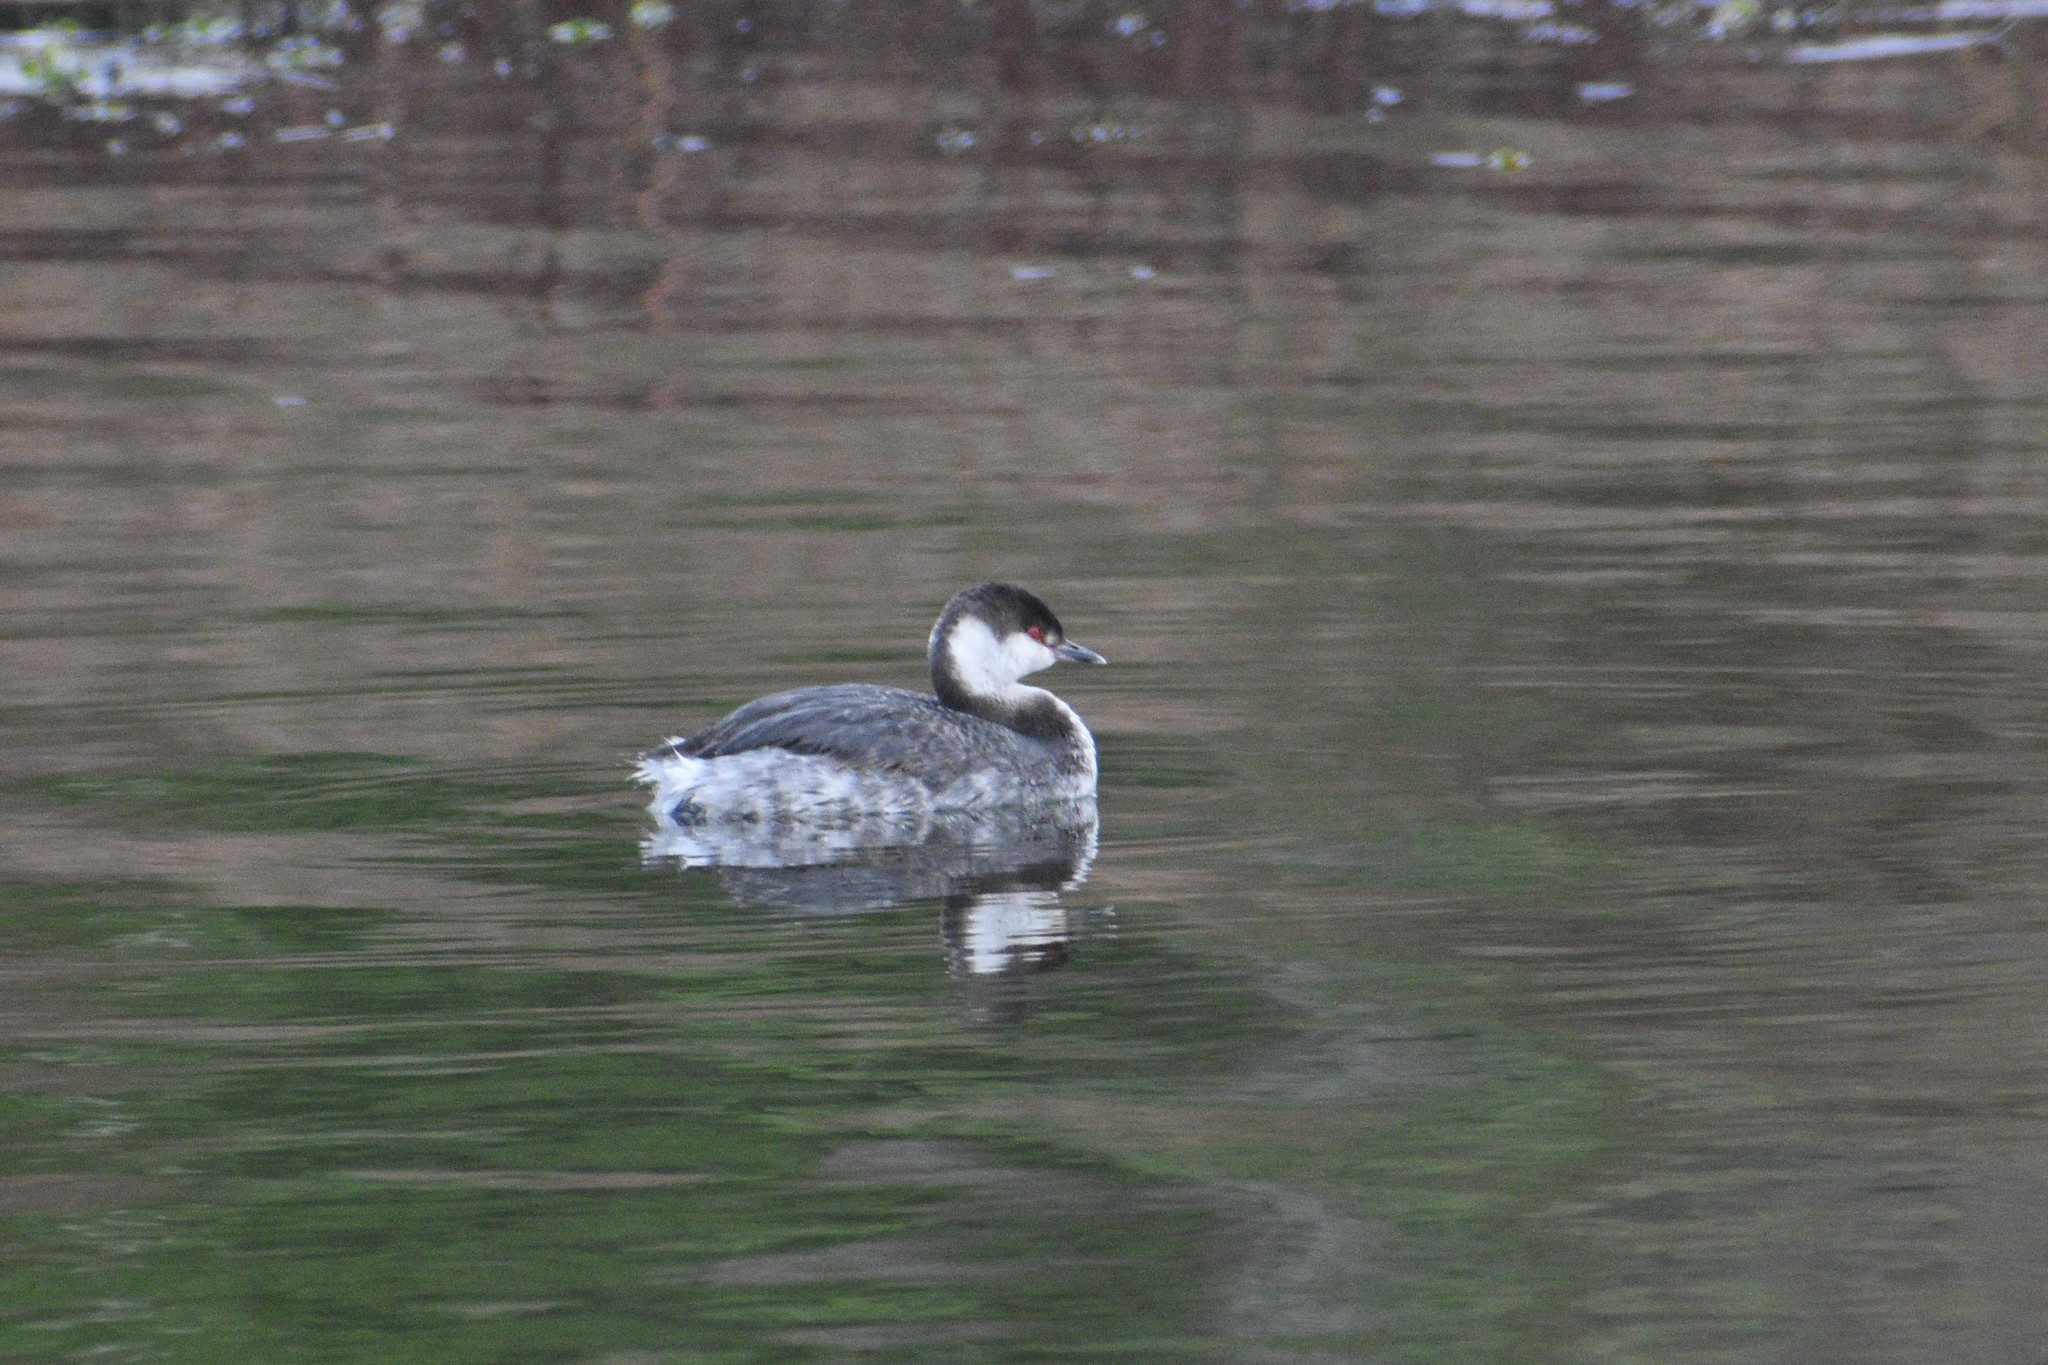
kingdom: Animalia
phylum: Chordata
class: Aves
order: Podicipediformes
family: Podicipedidae
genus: Podiceps
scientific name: Podiceps auritus
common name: Horned grebe
